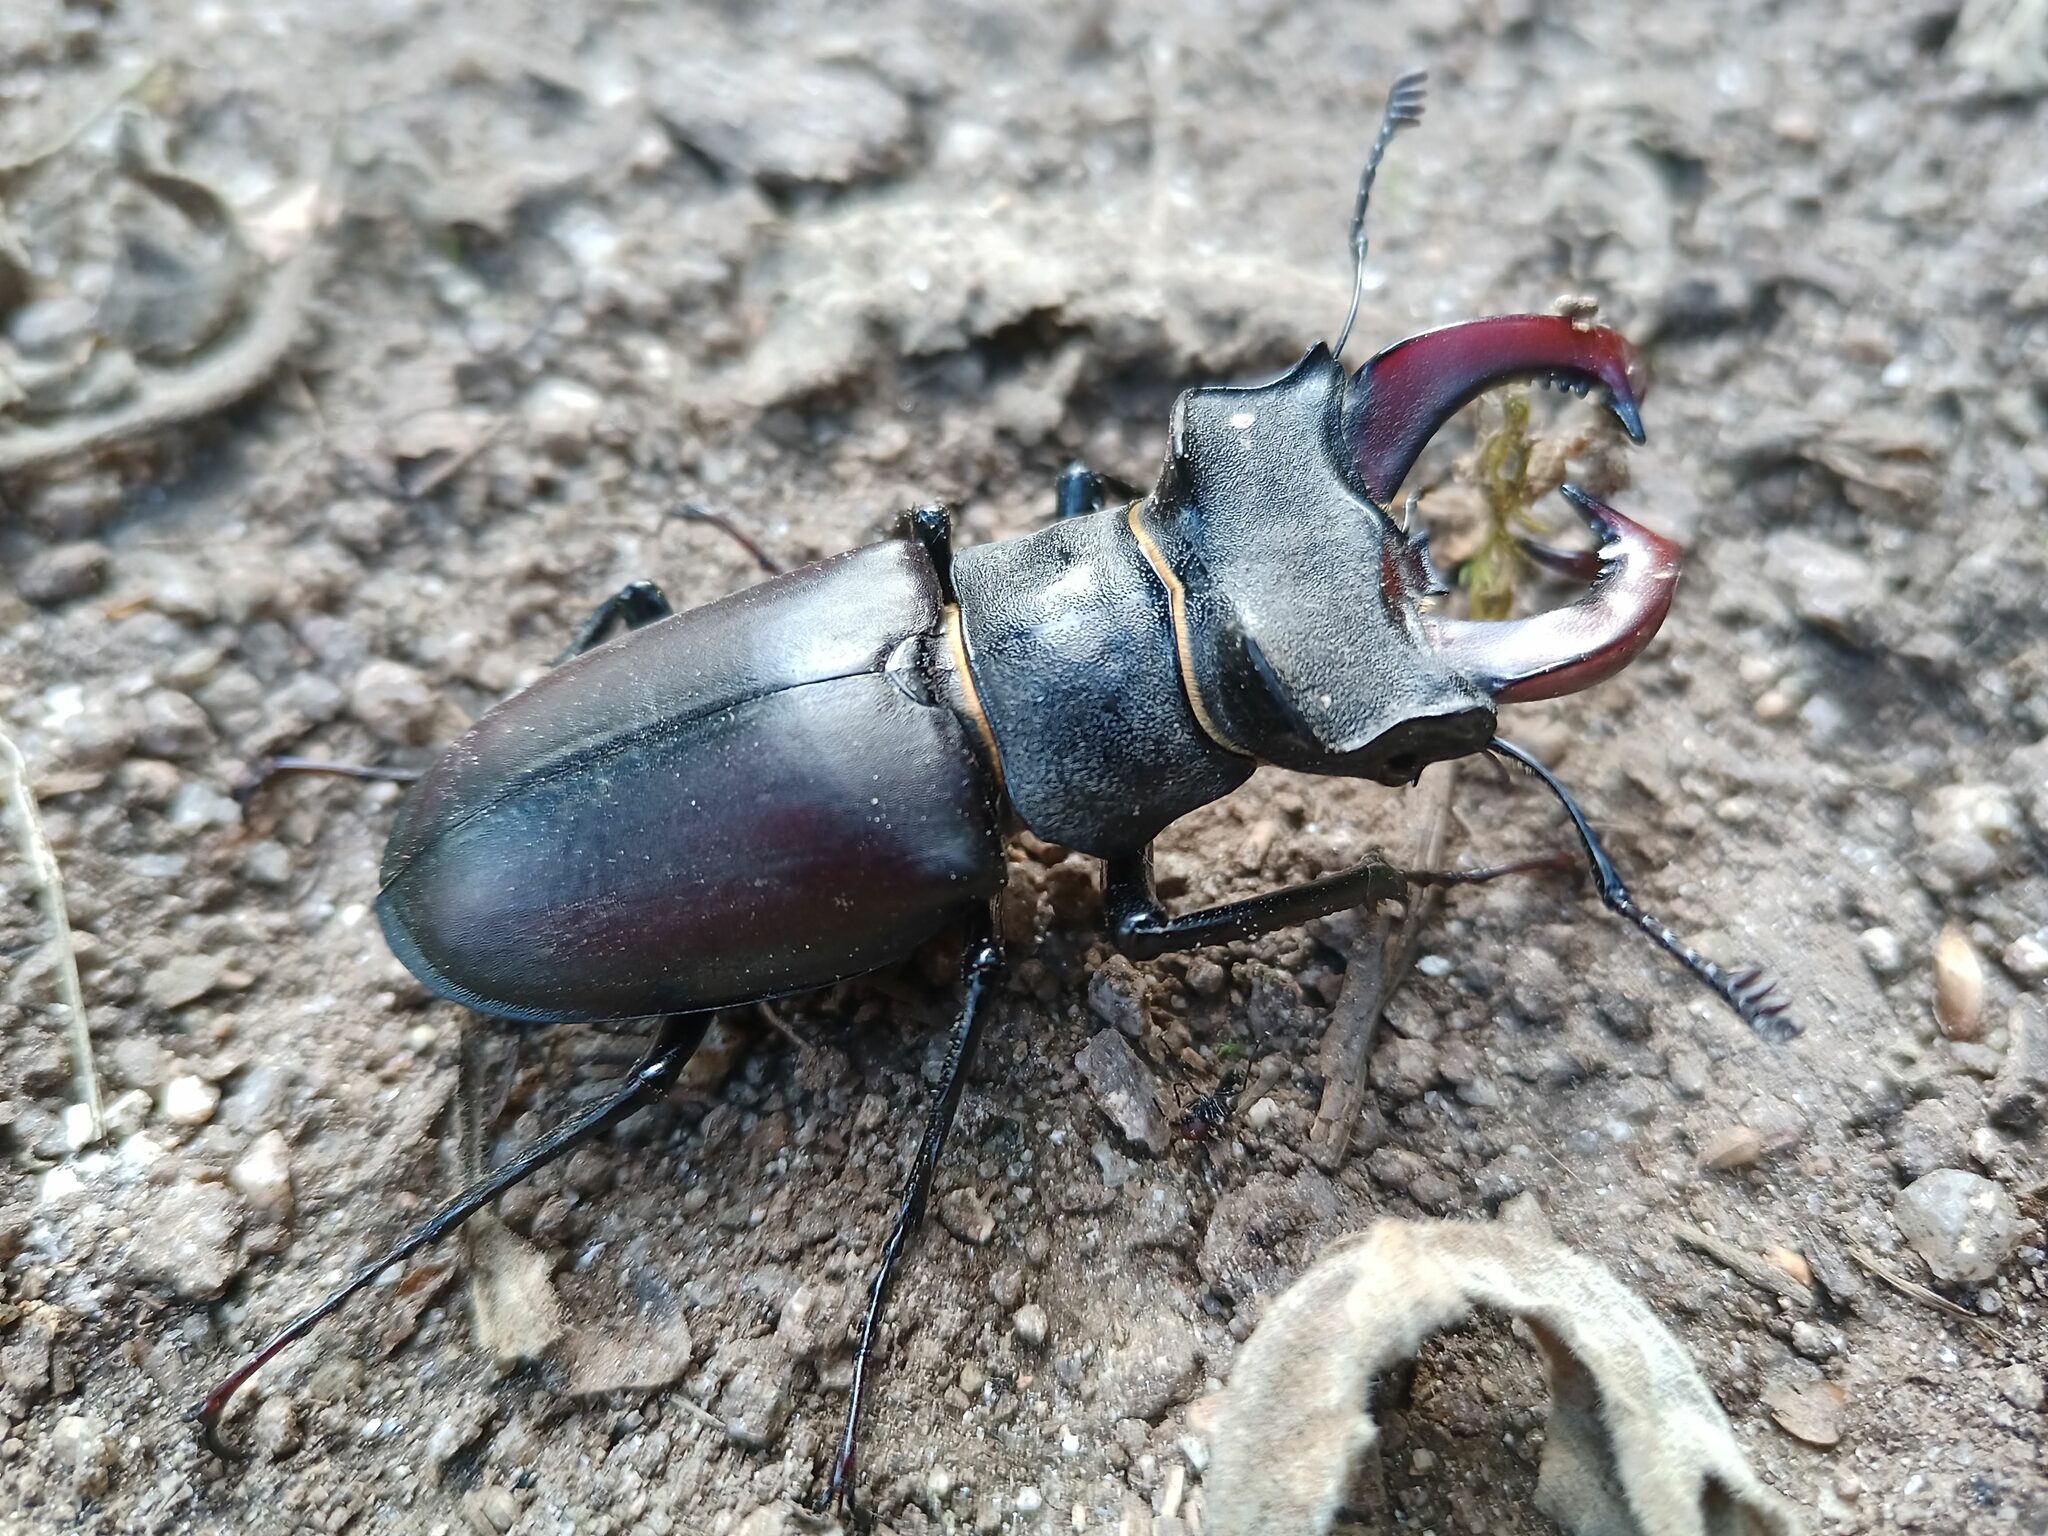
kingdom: Animalia
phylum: Arthropoda
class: Insecta
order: Coleoptera
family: Lucanidae
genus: Lucanus
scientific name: Lucanus cervus
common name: Stag beetle
